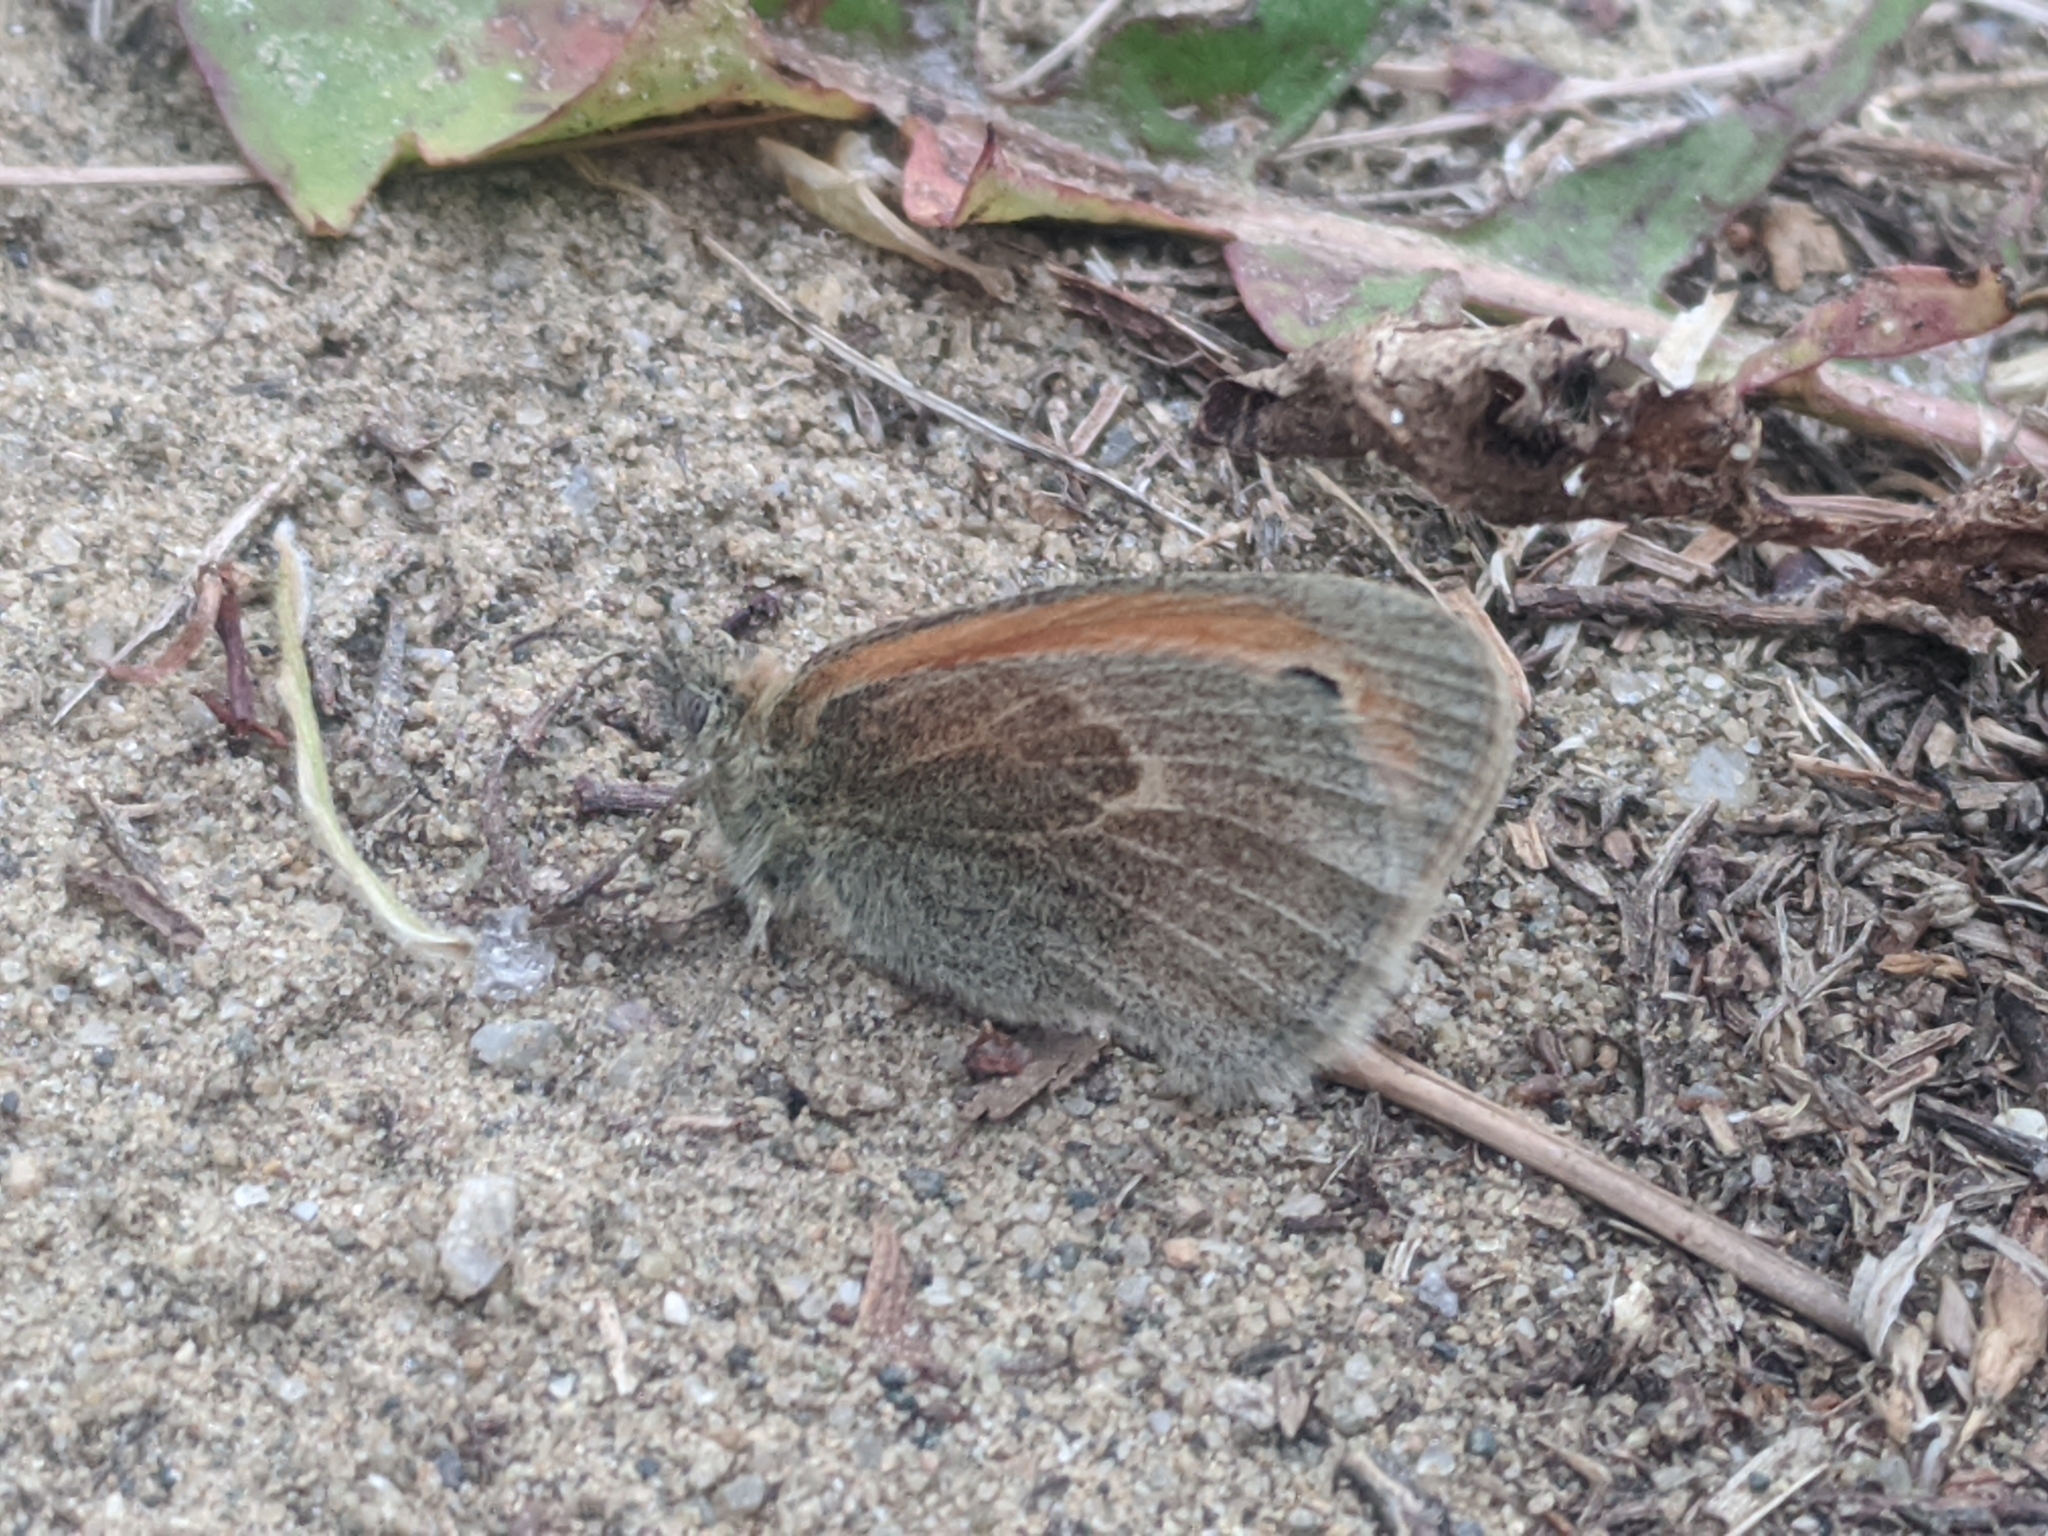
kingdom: Animalia
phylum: Arthropoda
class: Insecta
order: Lepidoptera
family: Nymphalidae
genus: Coenonympha
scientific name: Coenonympha pamphilus
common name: Small heath
